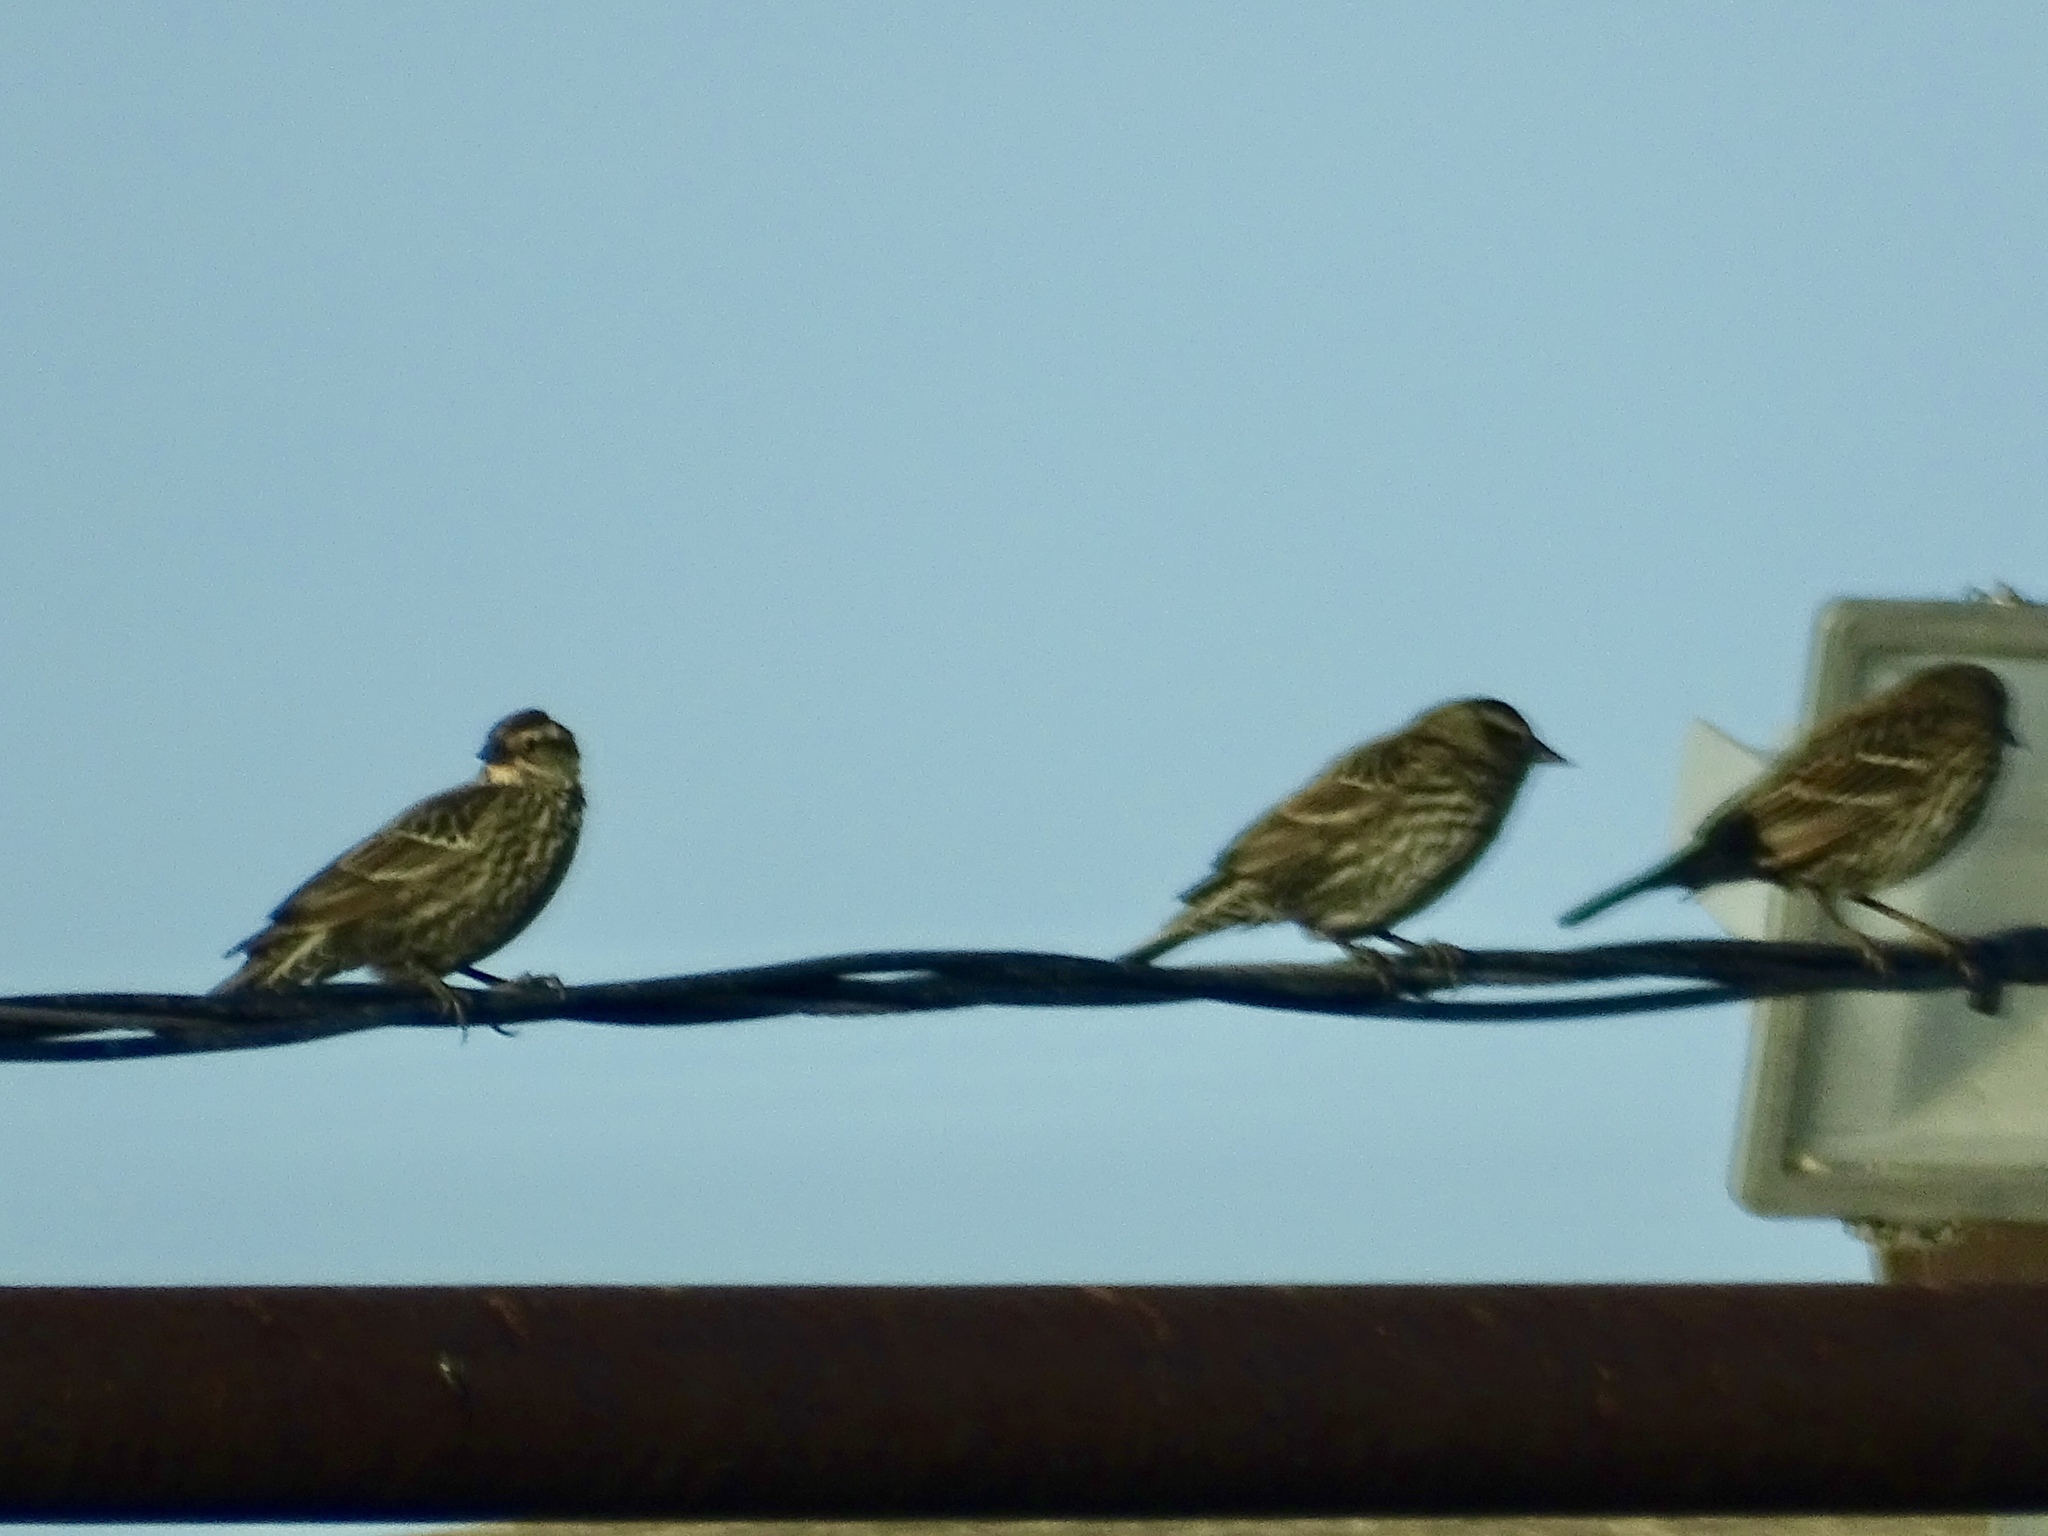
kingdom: Animalia
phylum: Chordata
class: Aves
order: Passeriformes
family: Icteridae
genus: Agelaius
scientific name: Agelaius phoeniceus
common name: Red-winged blackbird
